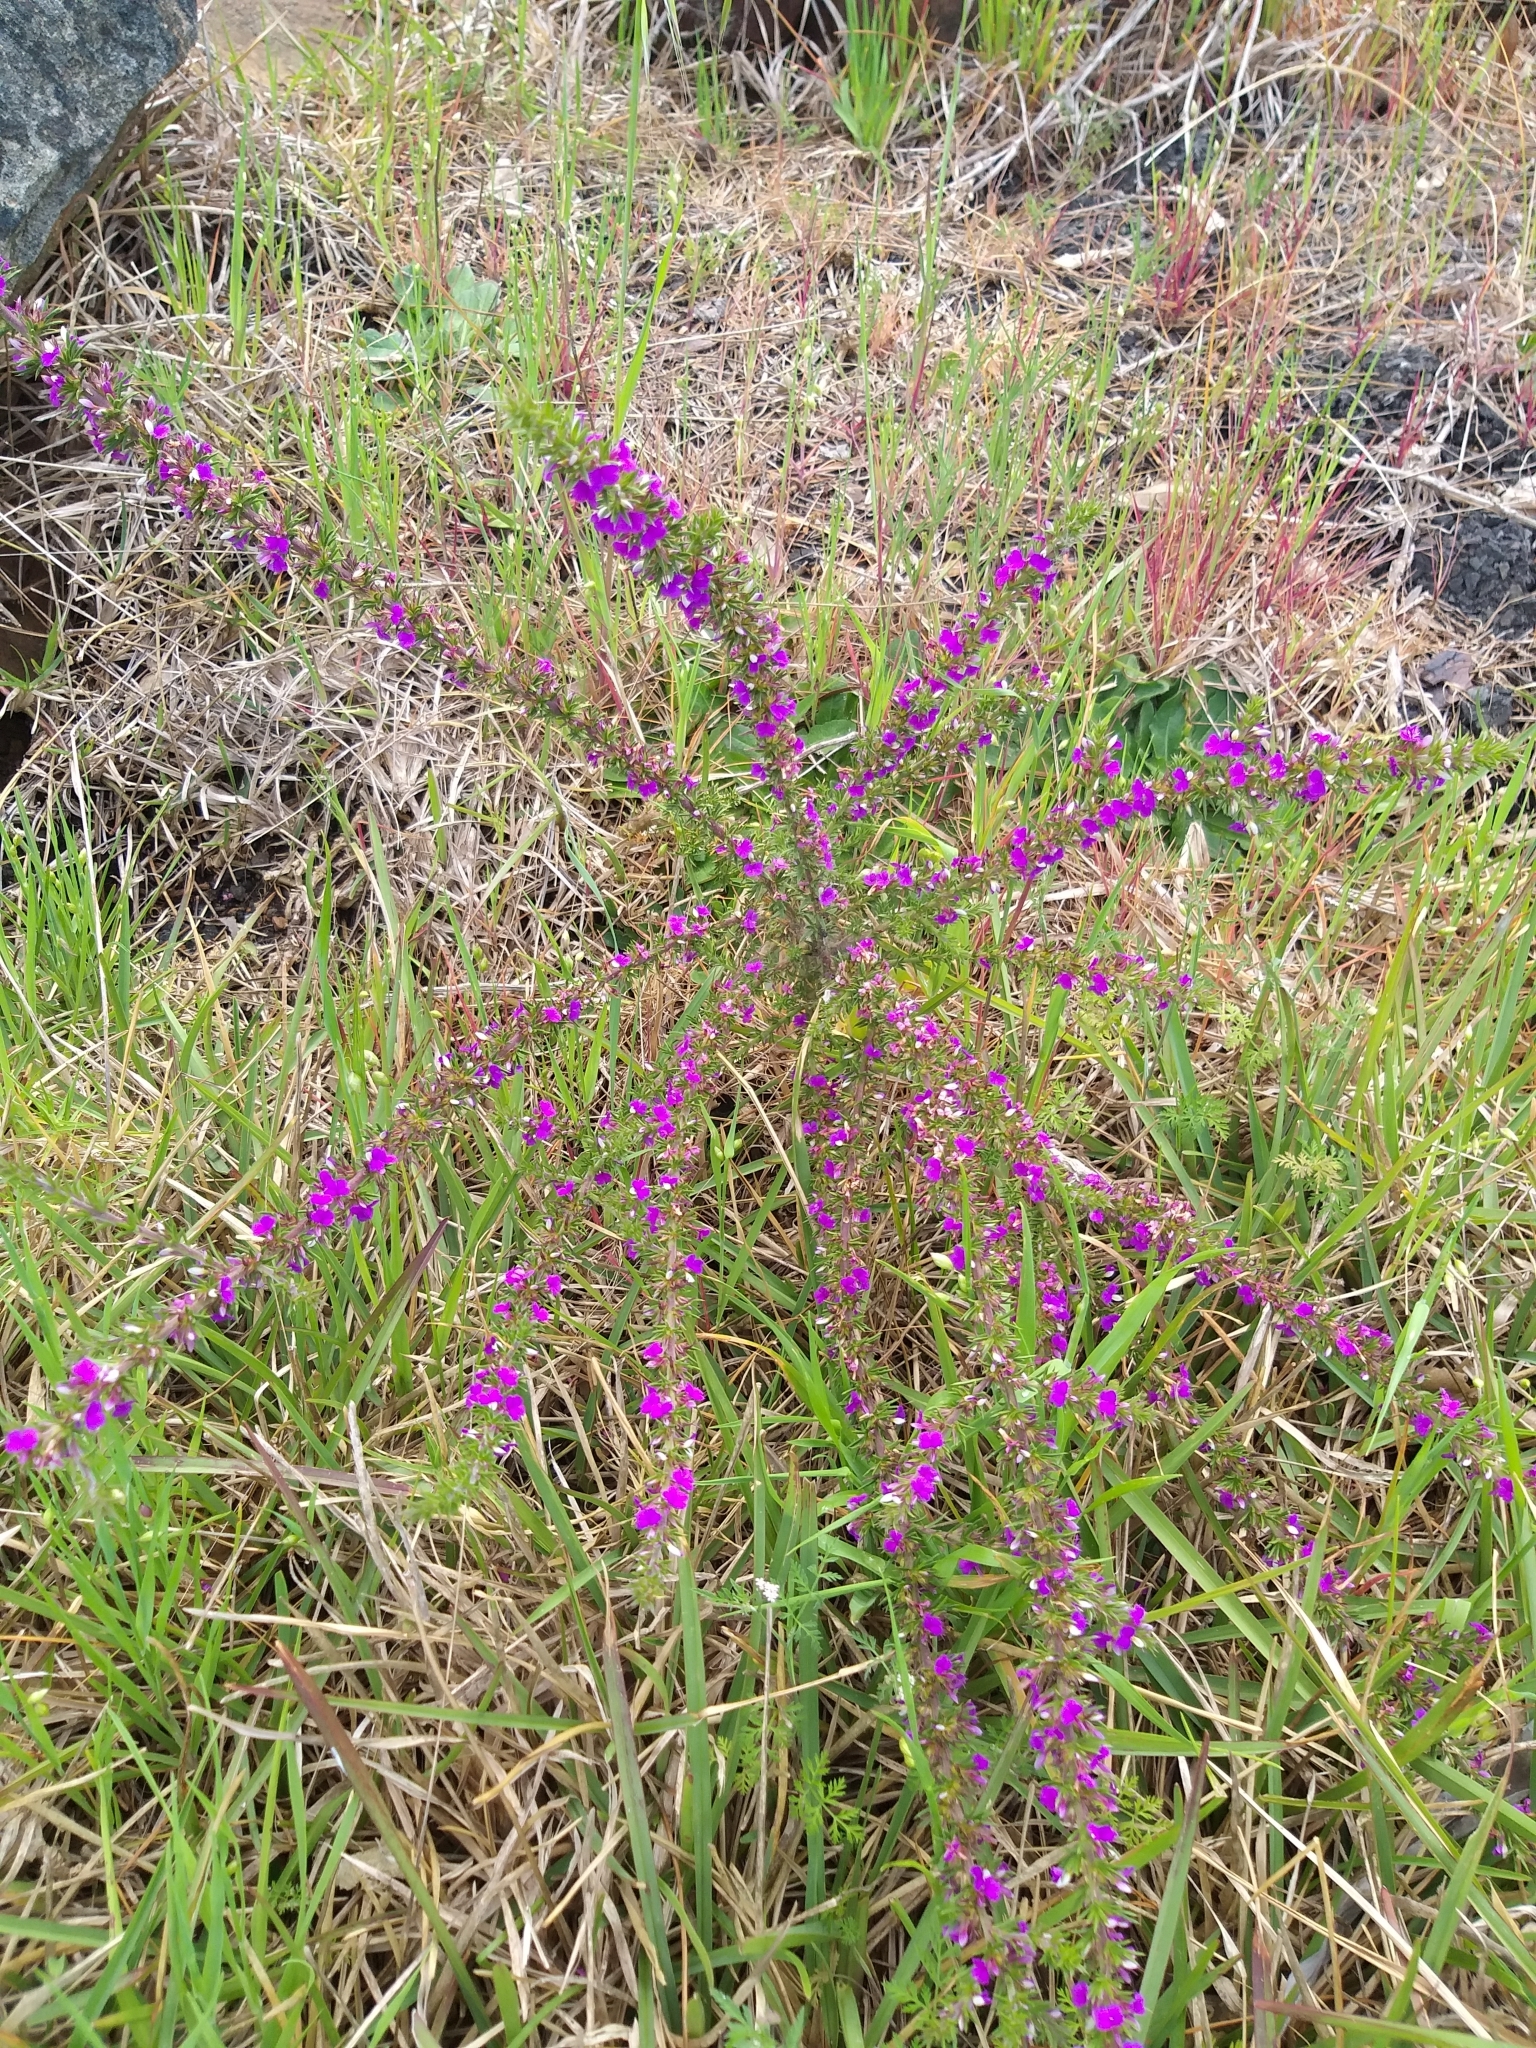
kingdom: Plantae
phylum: Tracheophyta
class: Magnoliopsida
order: Fabales
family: Polygalaceae
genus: Muraltia
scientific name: Muraltia heisteria
